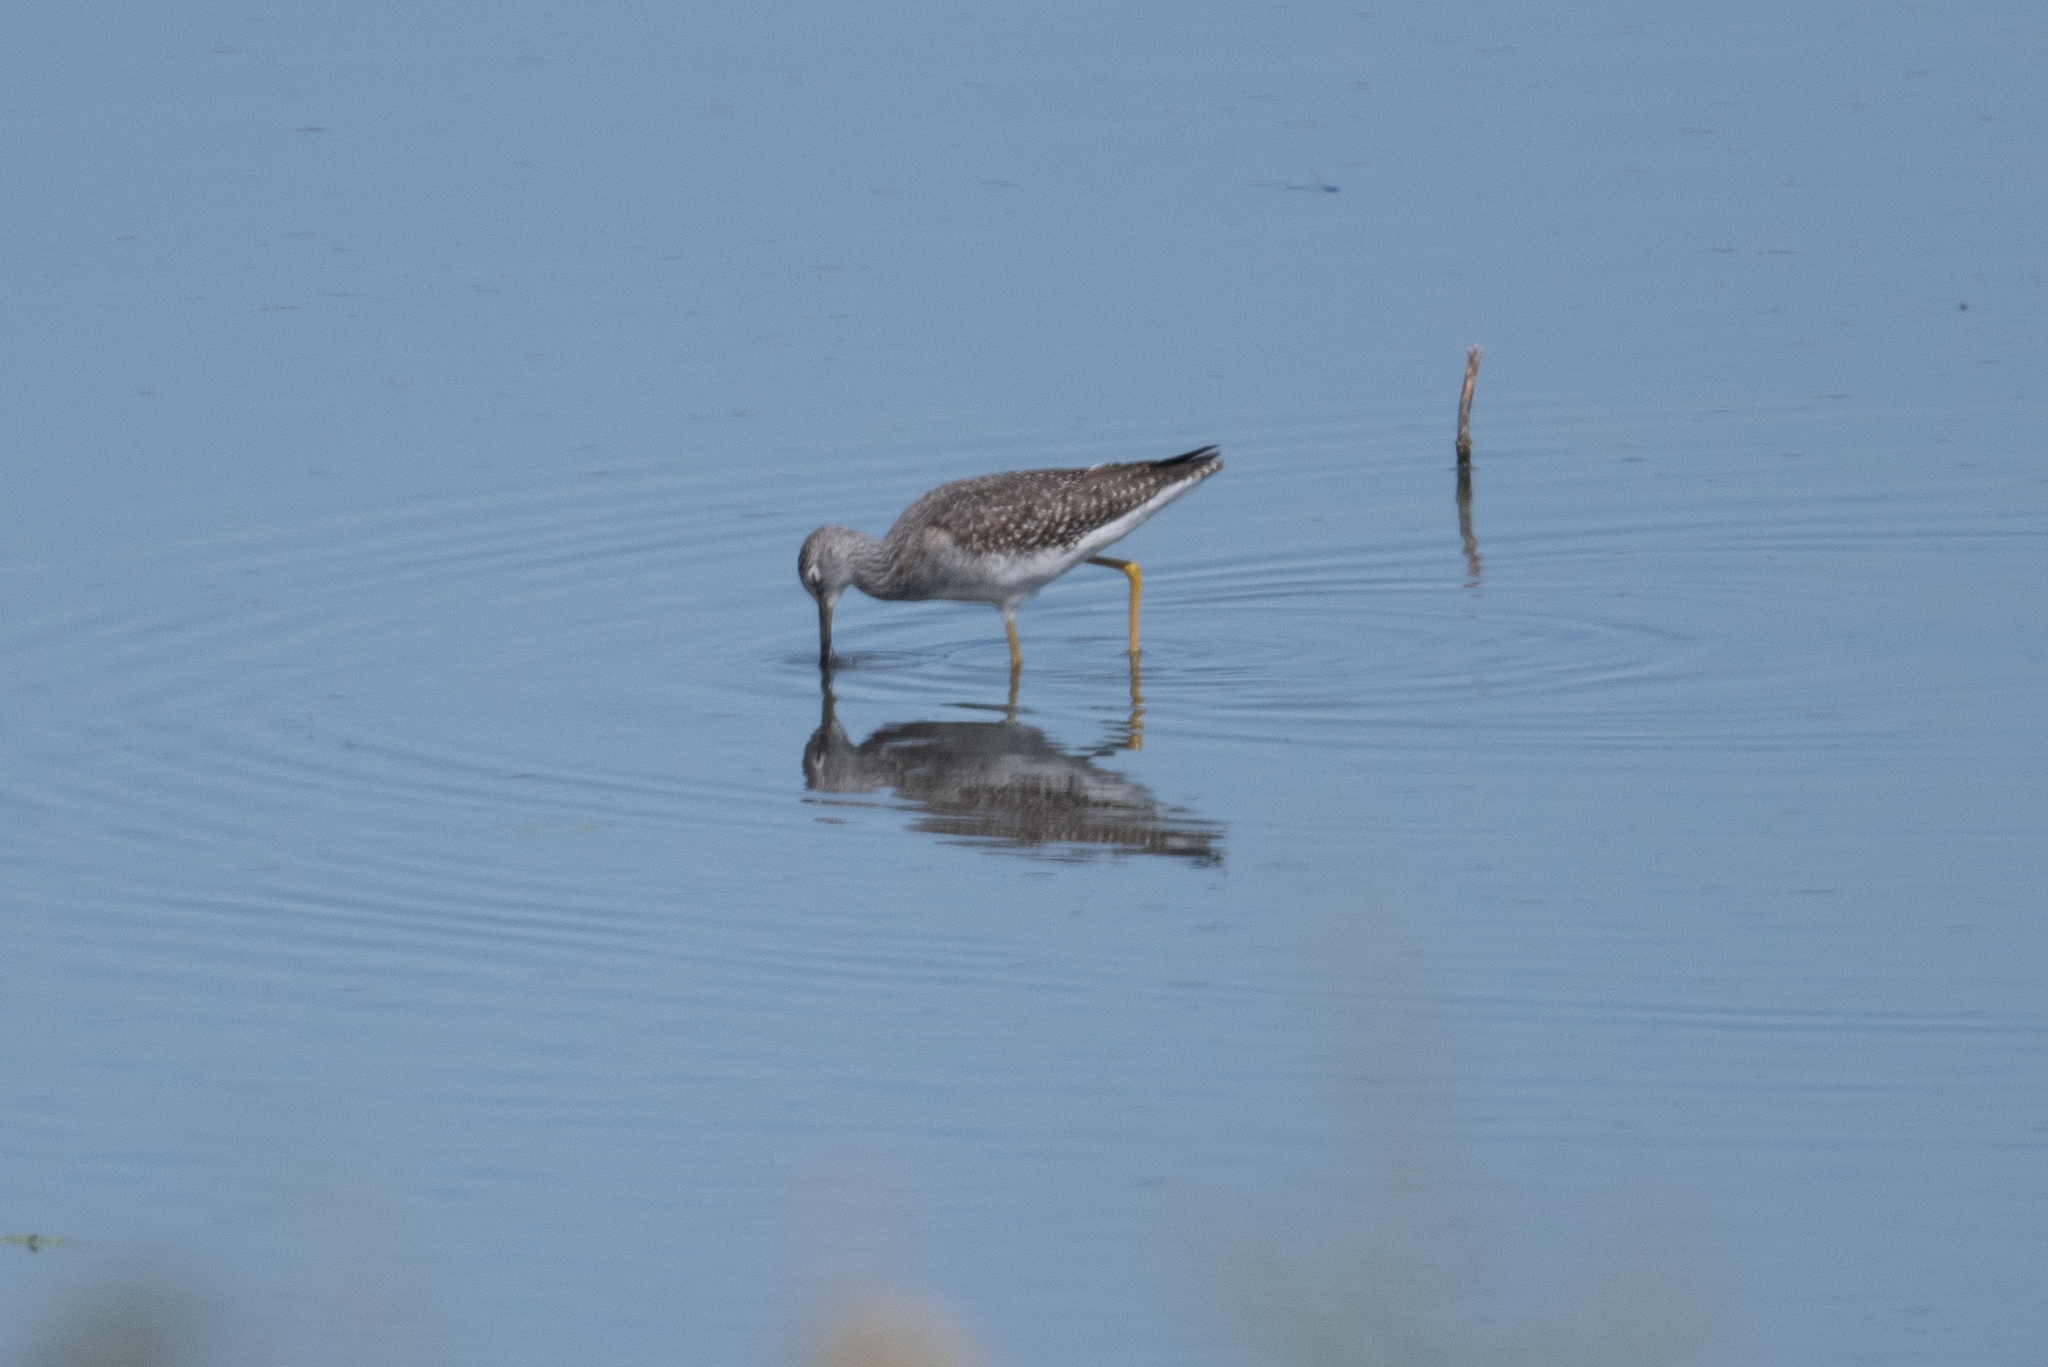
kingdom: Animalia
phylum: Chordata
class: Aves
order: Charadriiformes
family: Scolopacidae
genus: Tringa
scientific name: Tringa melanoleuca
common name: Greater yellowlegs
